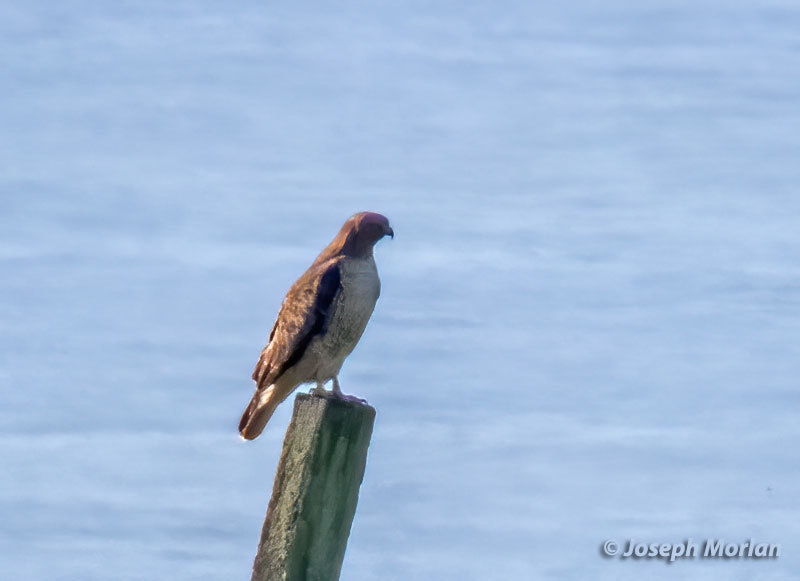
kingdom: Animalia
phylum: Chordata
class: Aves
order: Accipitriformes
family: Accipitridae
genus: Buteo
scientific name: Buteo jamaicensis
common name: Red-tailed hawk
